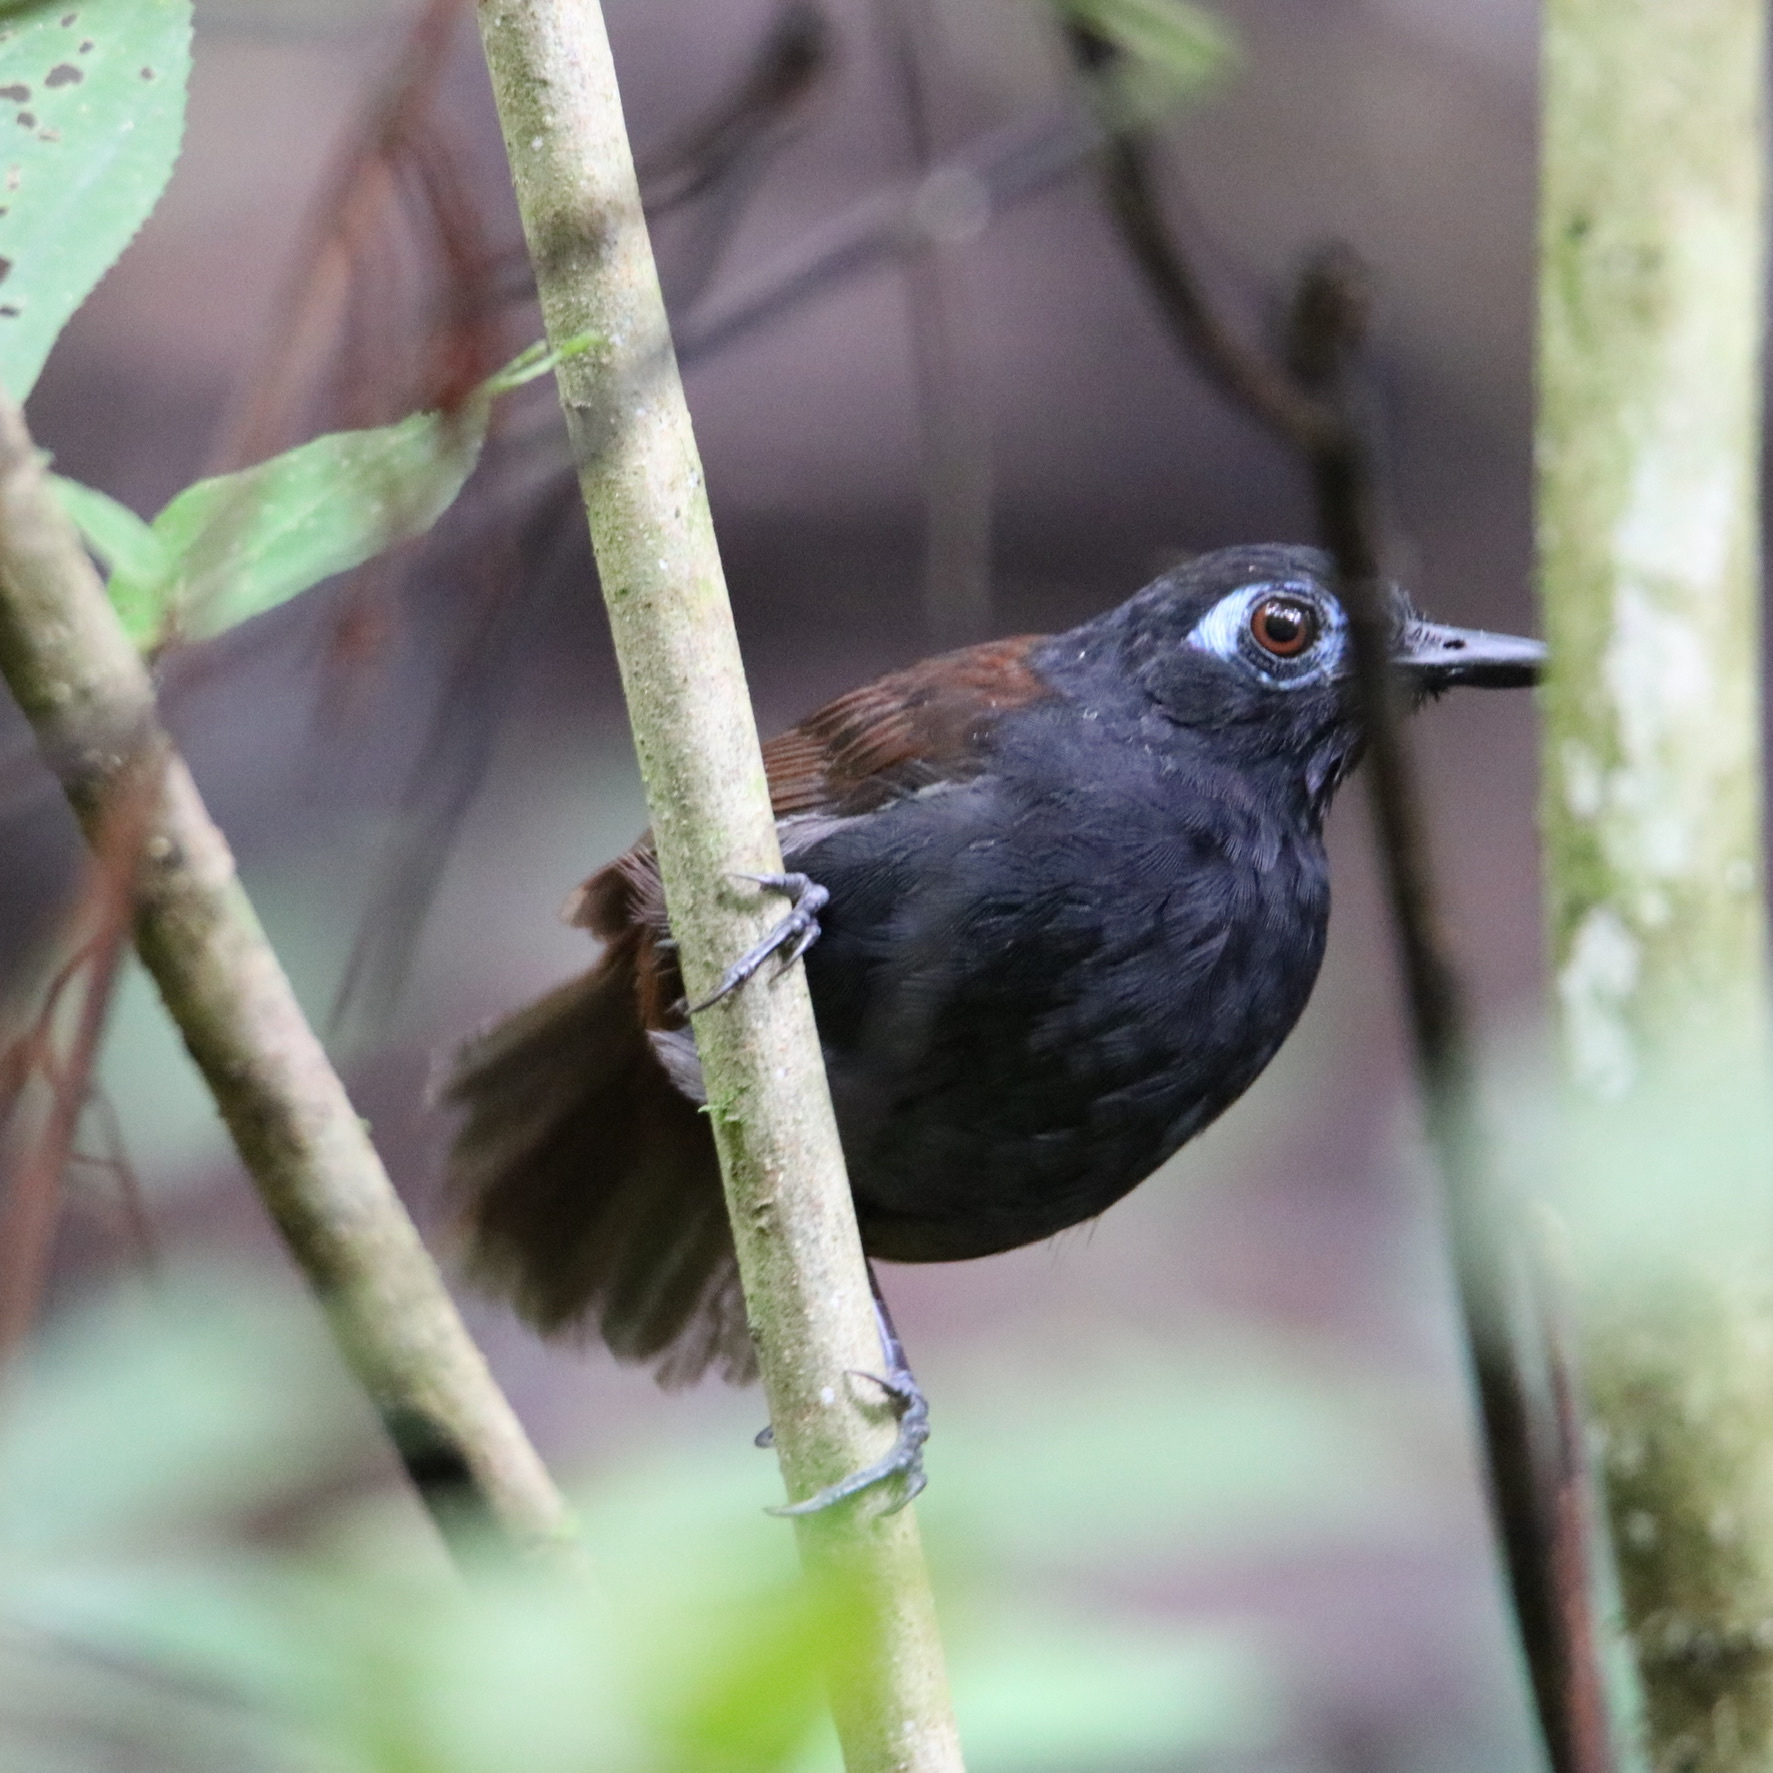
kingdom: Animalia
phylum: Chordata
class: Aves
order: Passeriformes
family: Thamnophilidae
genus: Myrmeciza
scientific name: Myrmeciza exsul
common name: Chestnut-backed antbird
